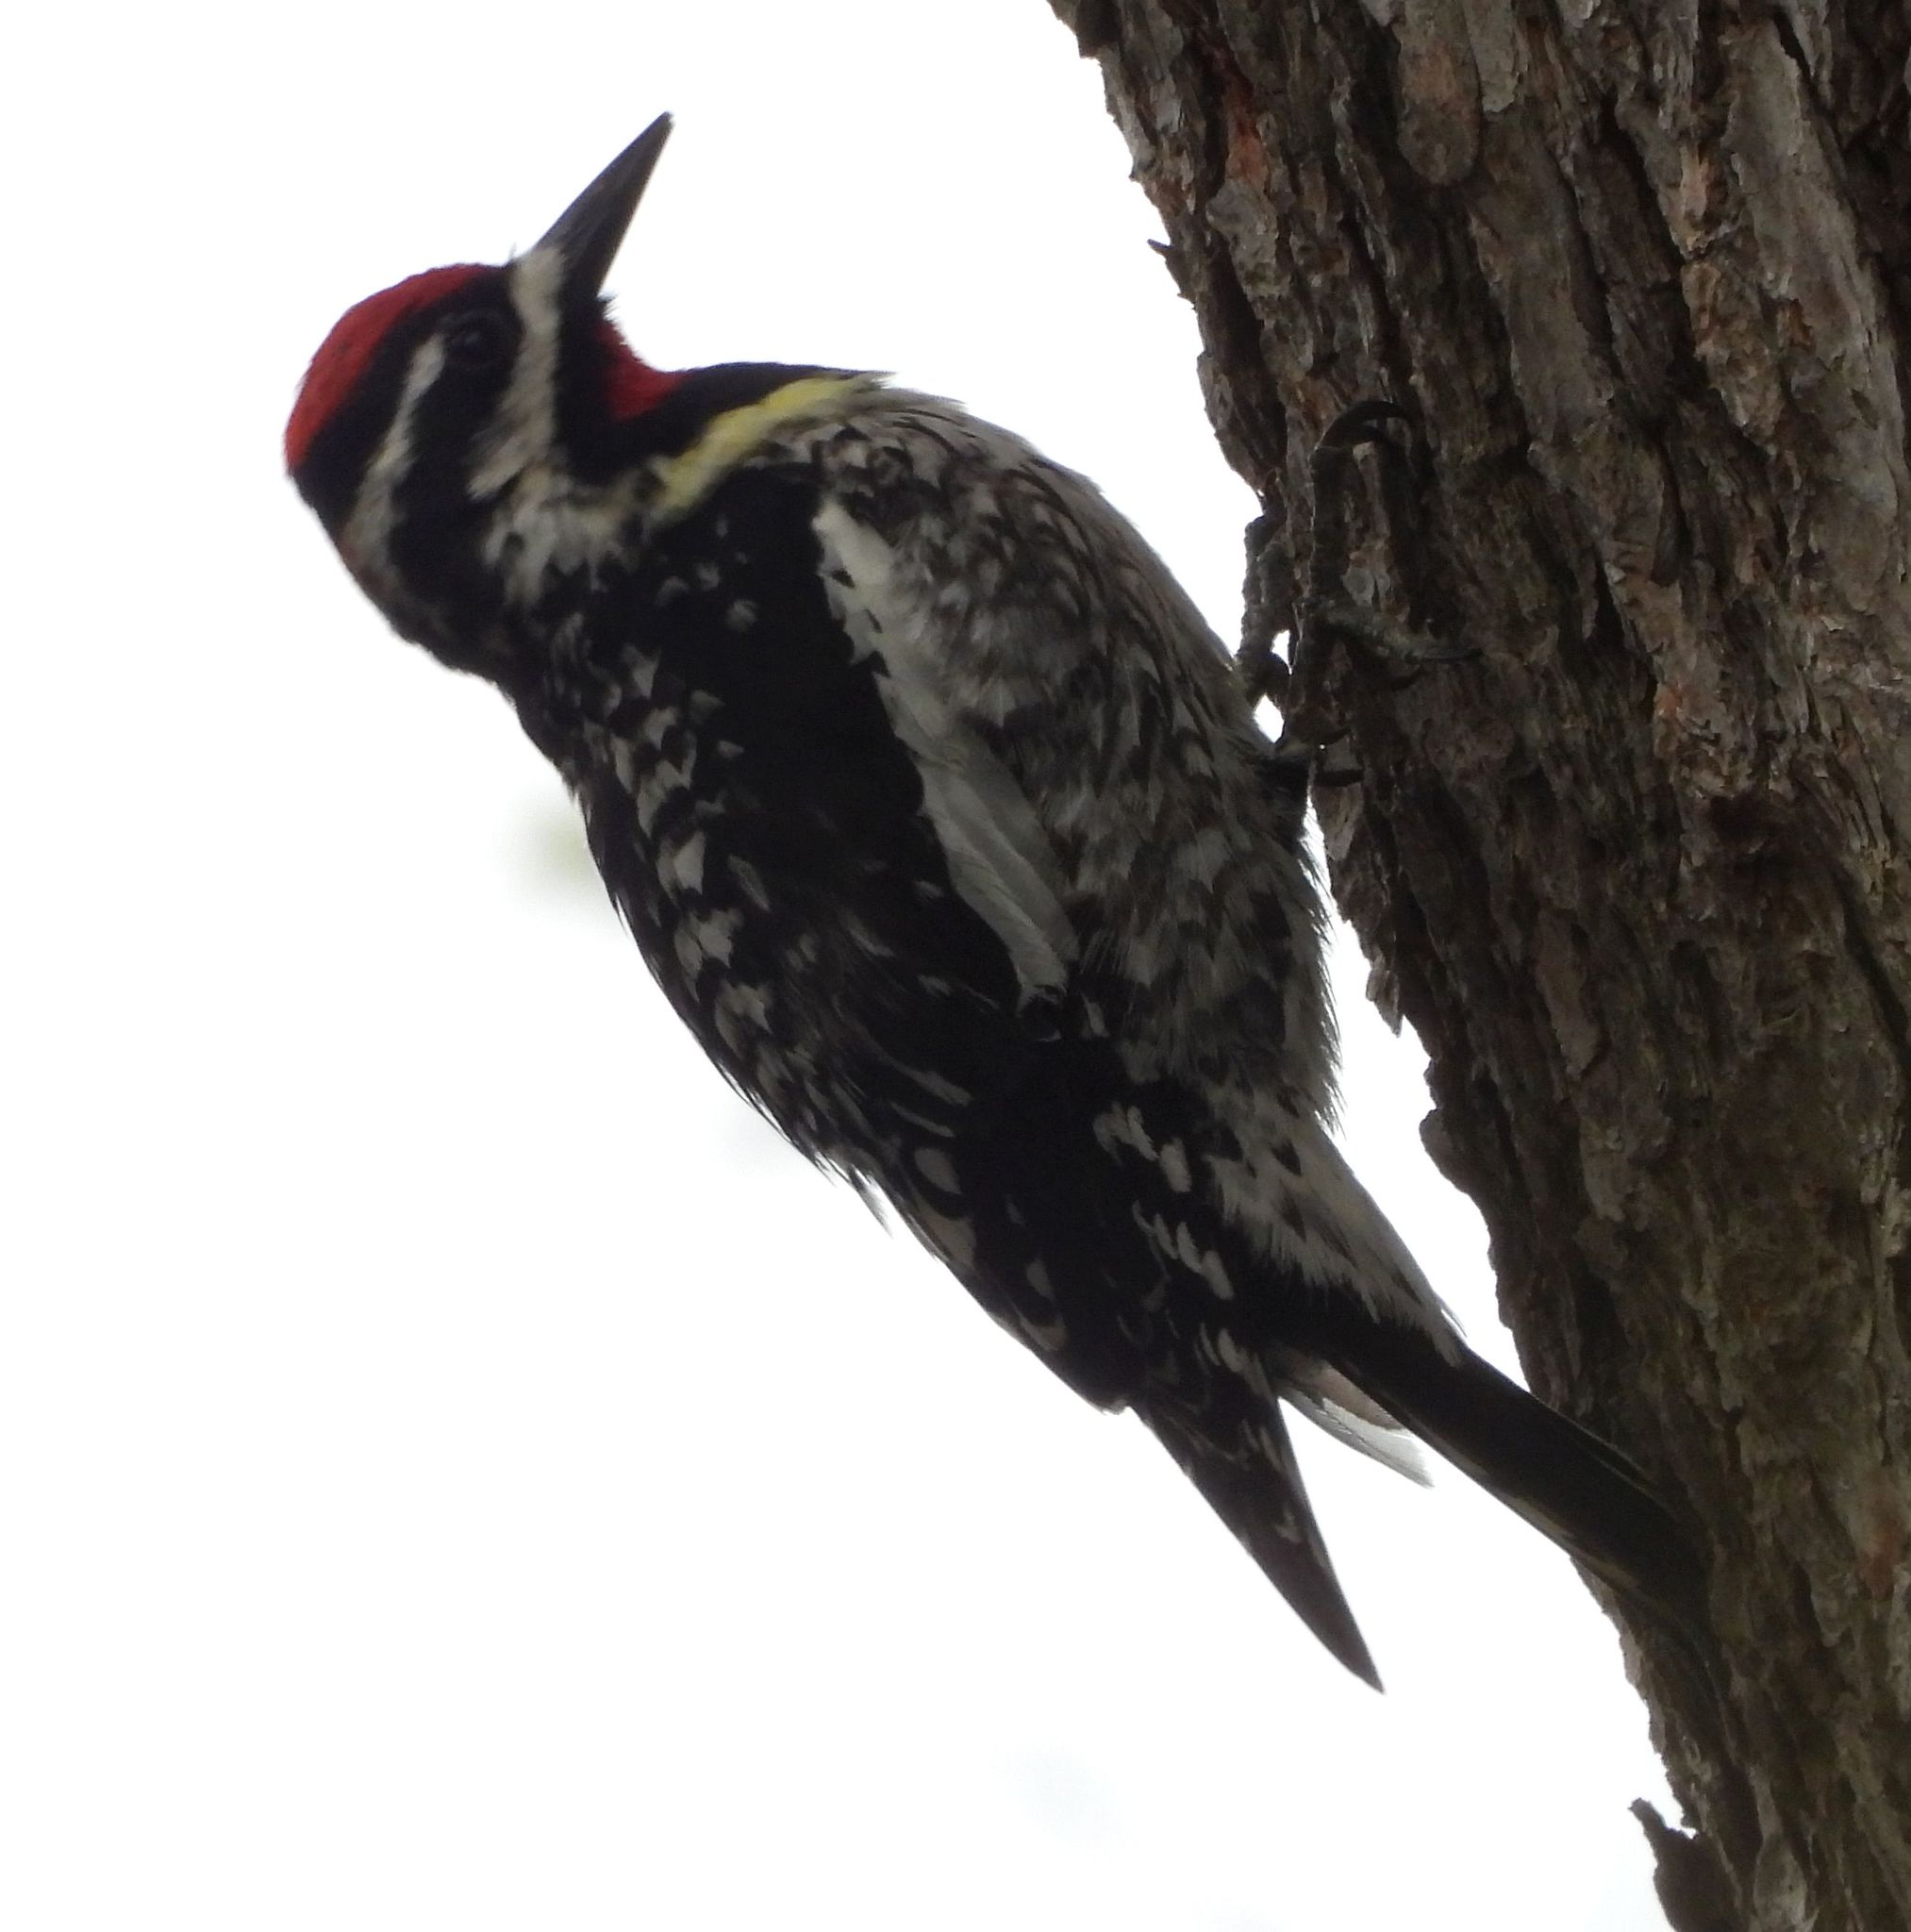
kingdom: Animalia
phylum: Chordata
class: Aves
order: Piciformes
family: Picidae
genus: Sphyrapicus
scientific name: Sphyrapicus varius
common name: Yellow-bellied sapsucker
